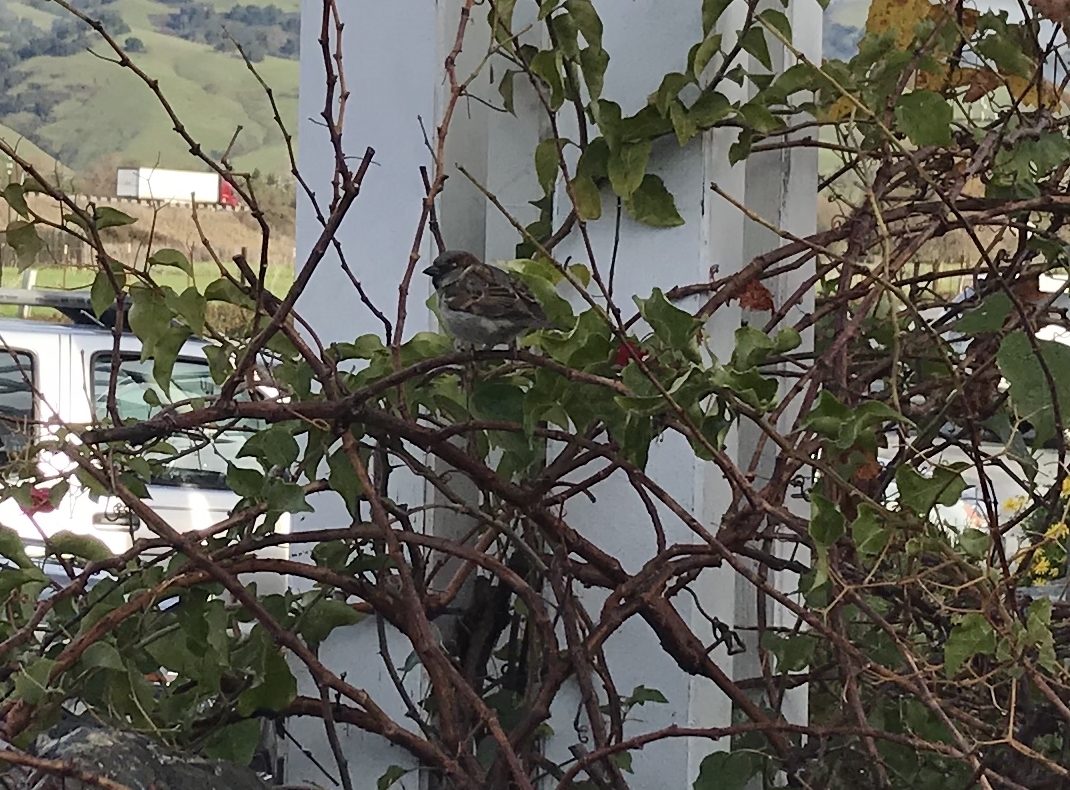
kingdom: Animalia
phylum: Chordata
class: Aves
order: Passeriformes
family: Passeridae
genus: Passer
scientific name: Passer domesticus
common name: House sparrow
